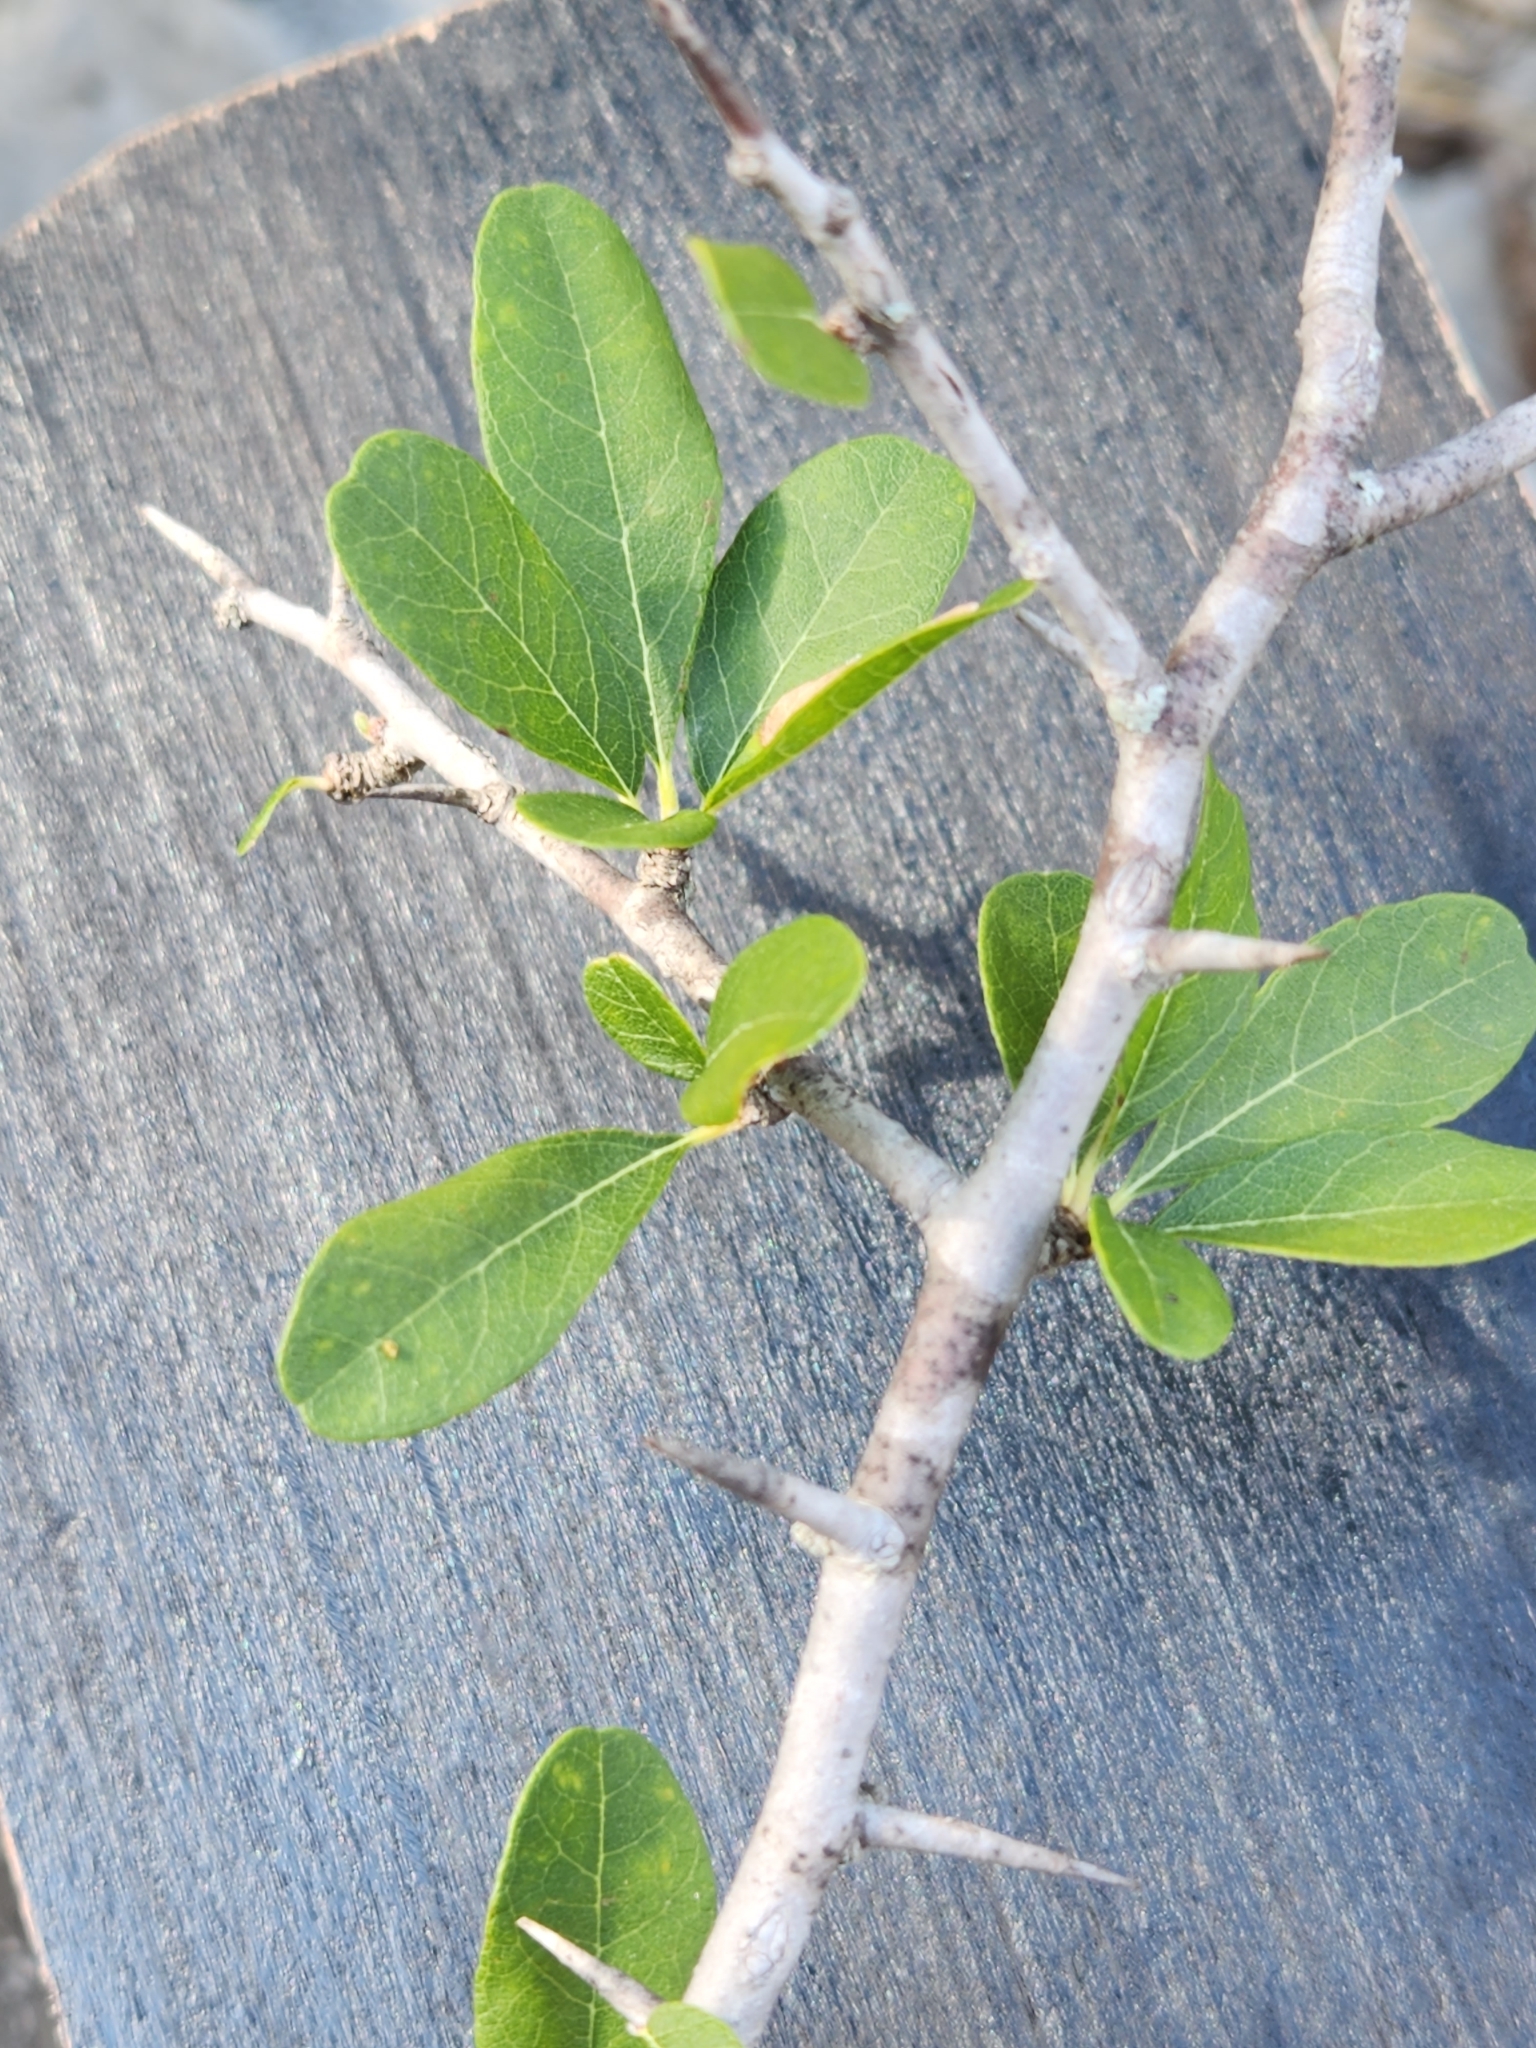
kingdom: Plantae
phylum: Tracheophyta
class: Magnoliopsida
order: Ericales
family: Sapotaceae
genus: Sideroxylon
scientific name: Sideroxylon lanuginosum
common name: Chittamwood
